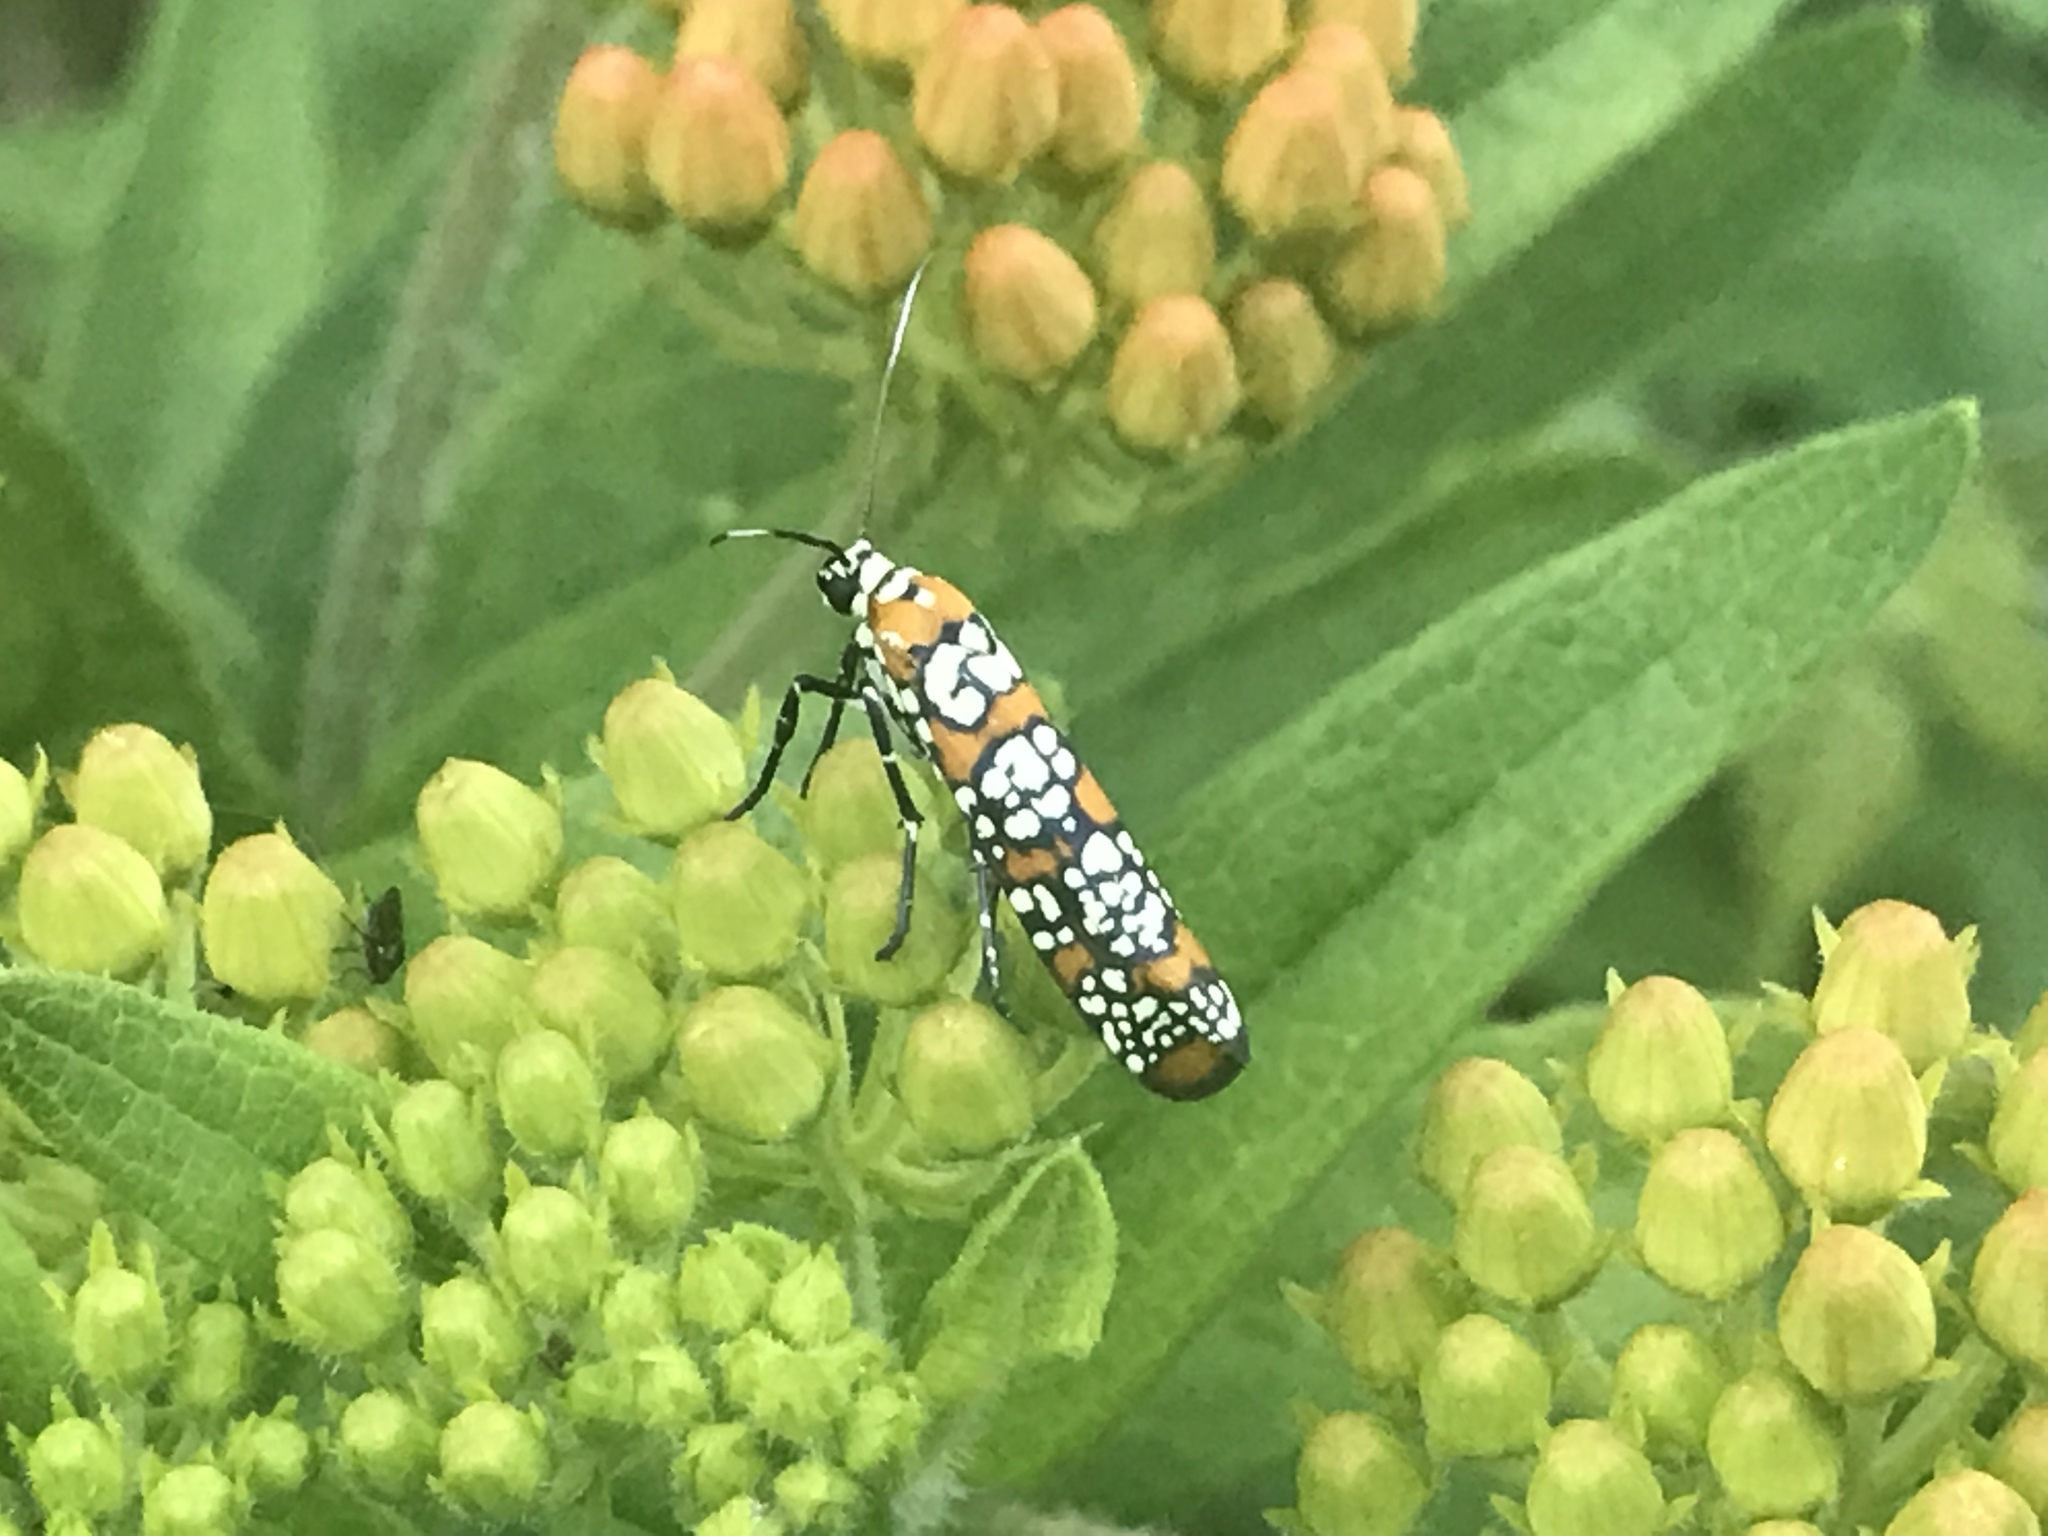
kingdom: Animalia
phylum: Arthropoda
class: Insecta
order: Lepidoptera
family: Attevidae
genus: Atteva
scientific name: Atteva punctella
